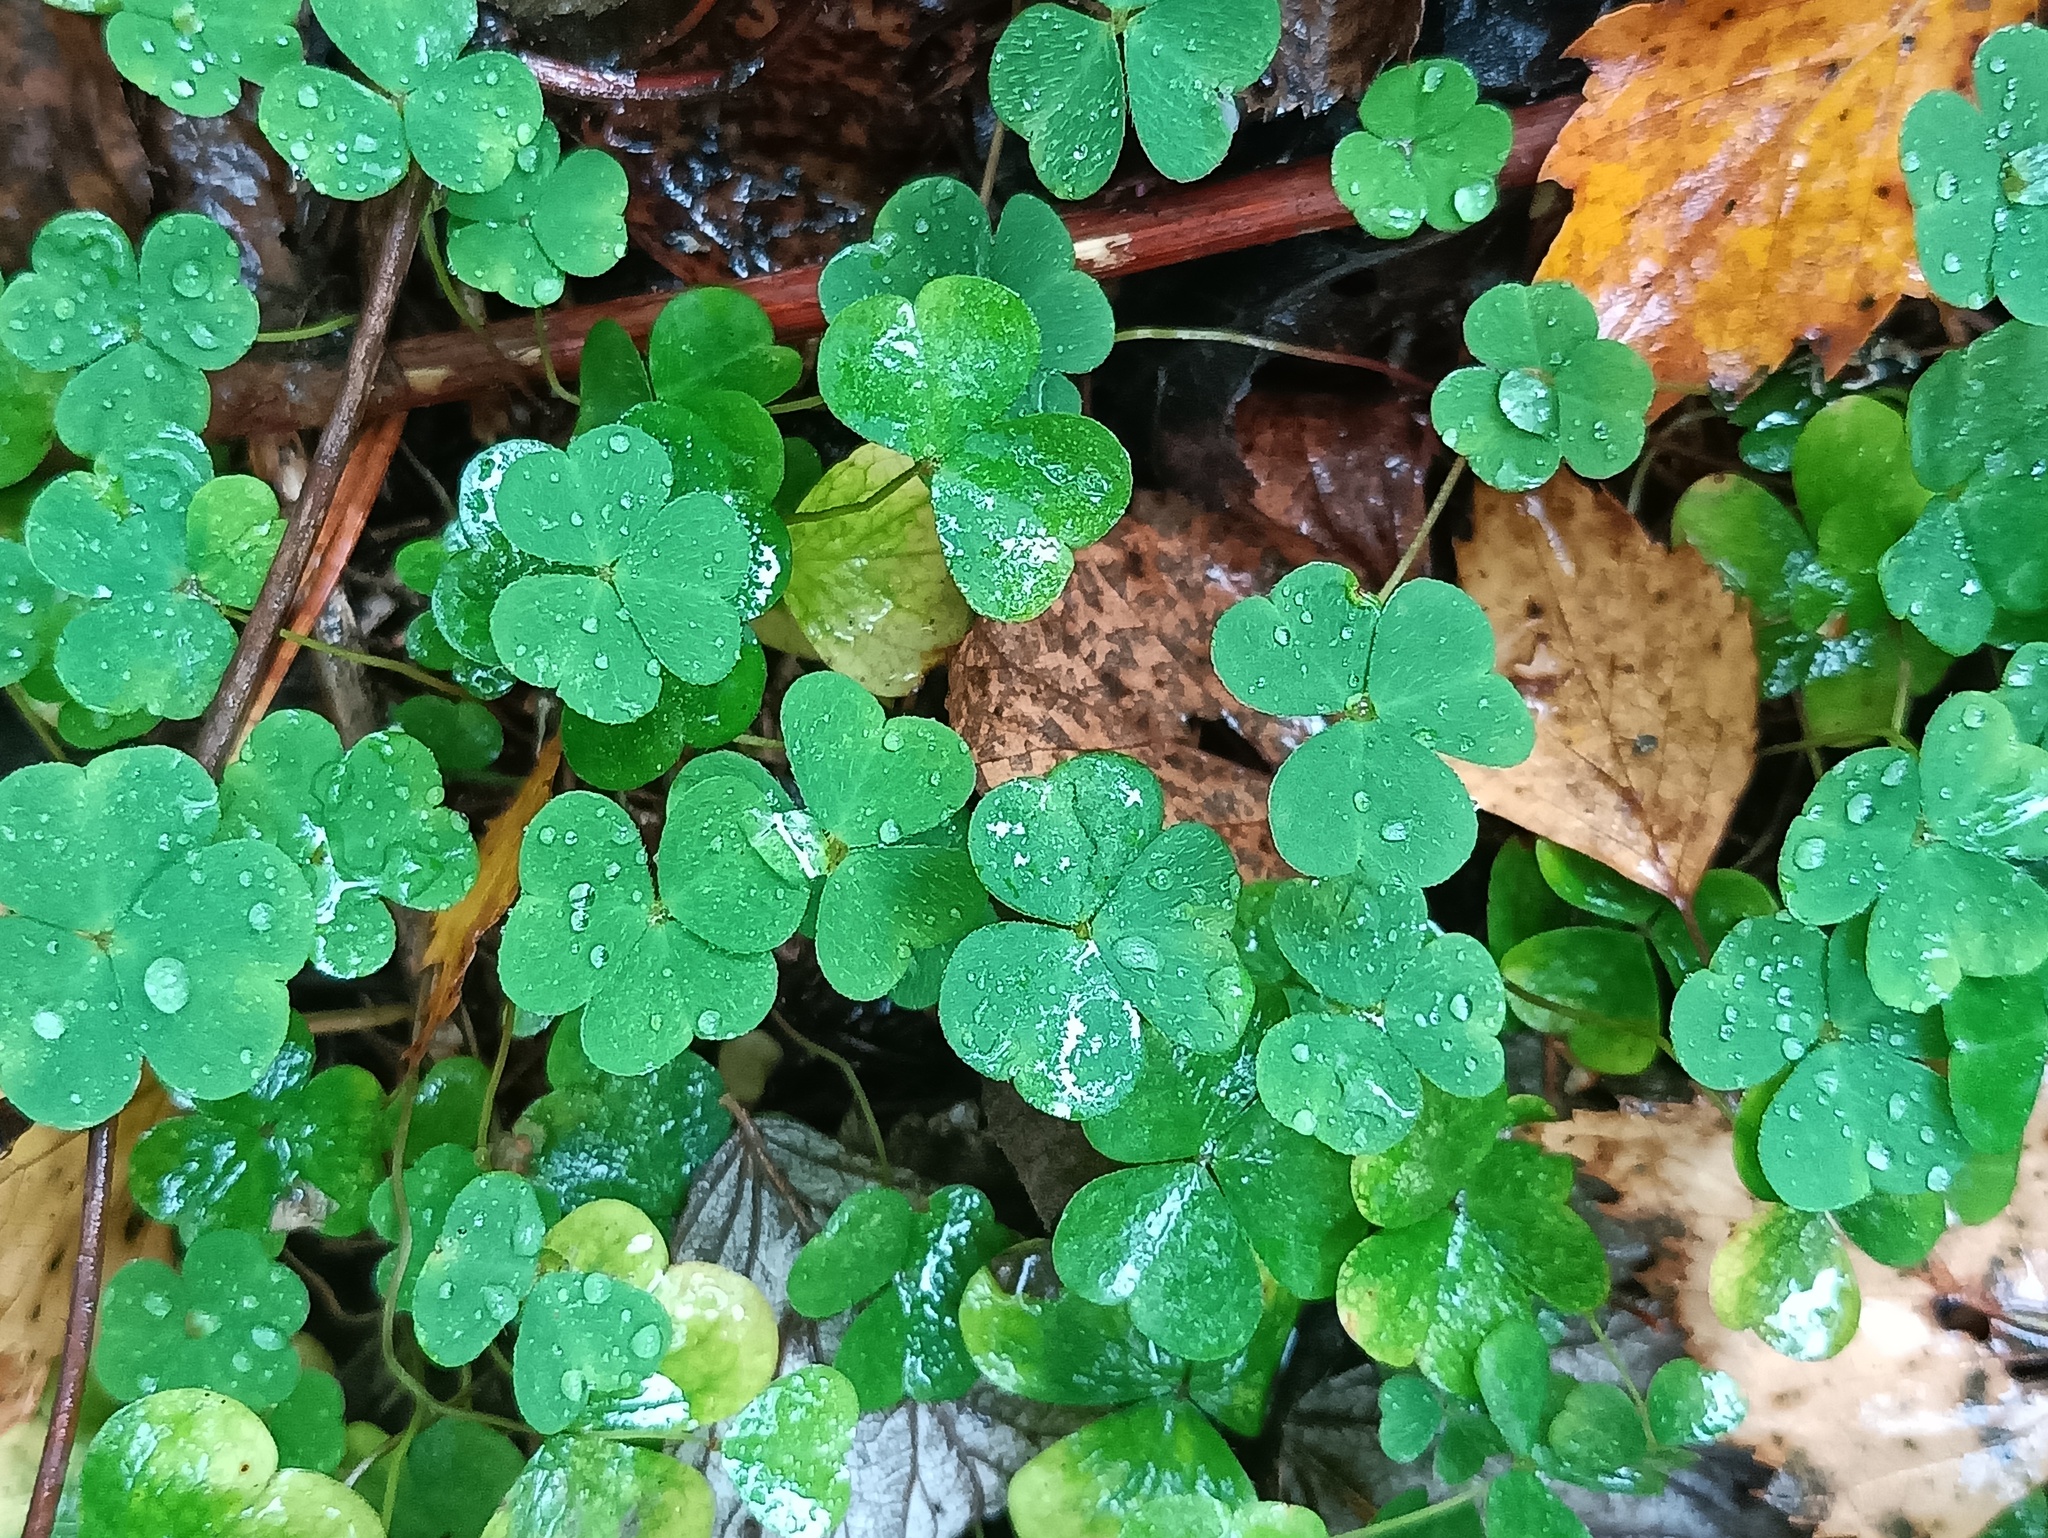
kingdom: Plantae
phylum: Tracheophyta
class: Magnoliopsida
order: Oxalidales
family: Oxalidaceae
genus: Oxalis
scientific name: Oxalis acetosella
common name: Wood-sorrel
